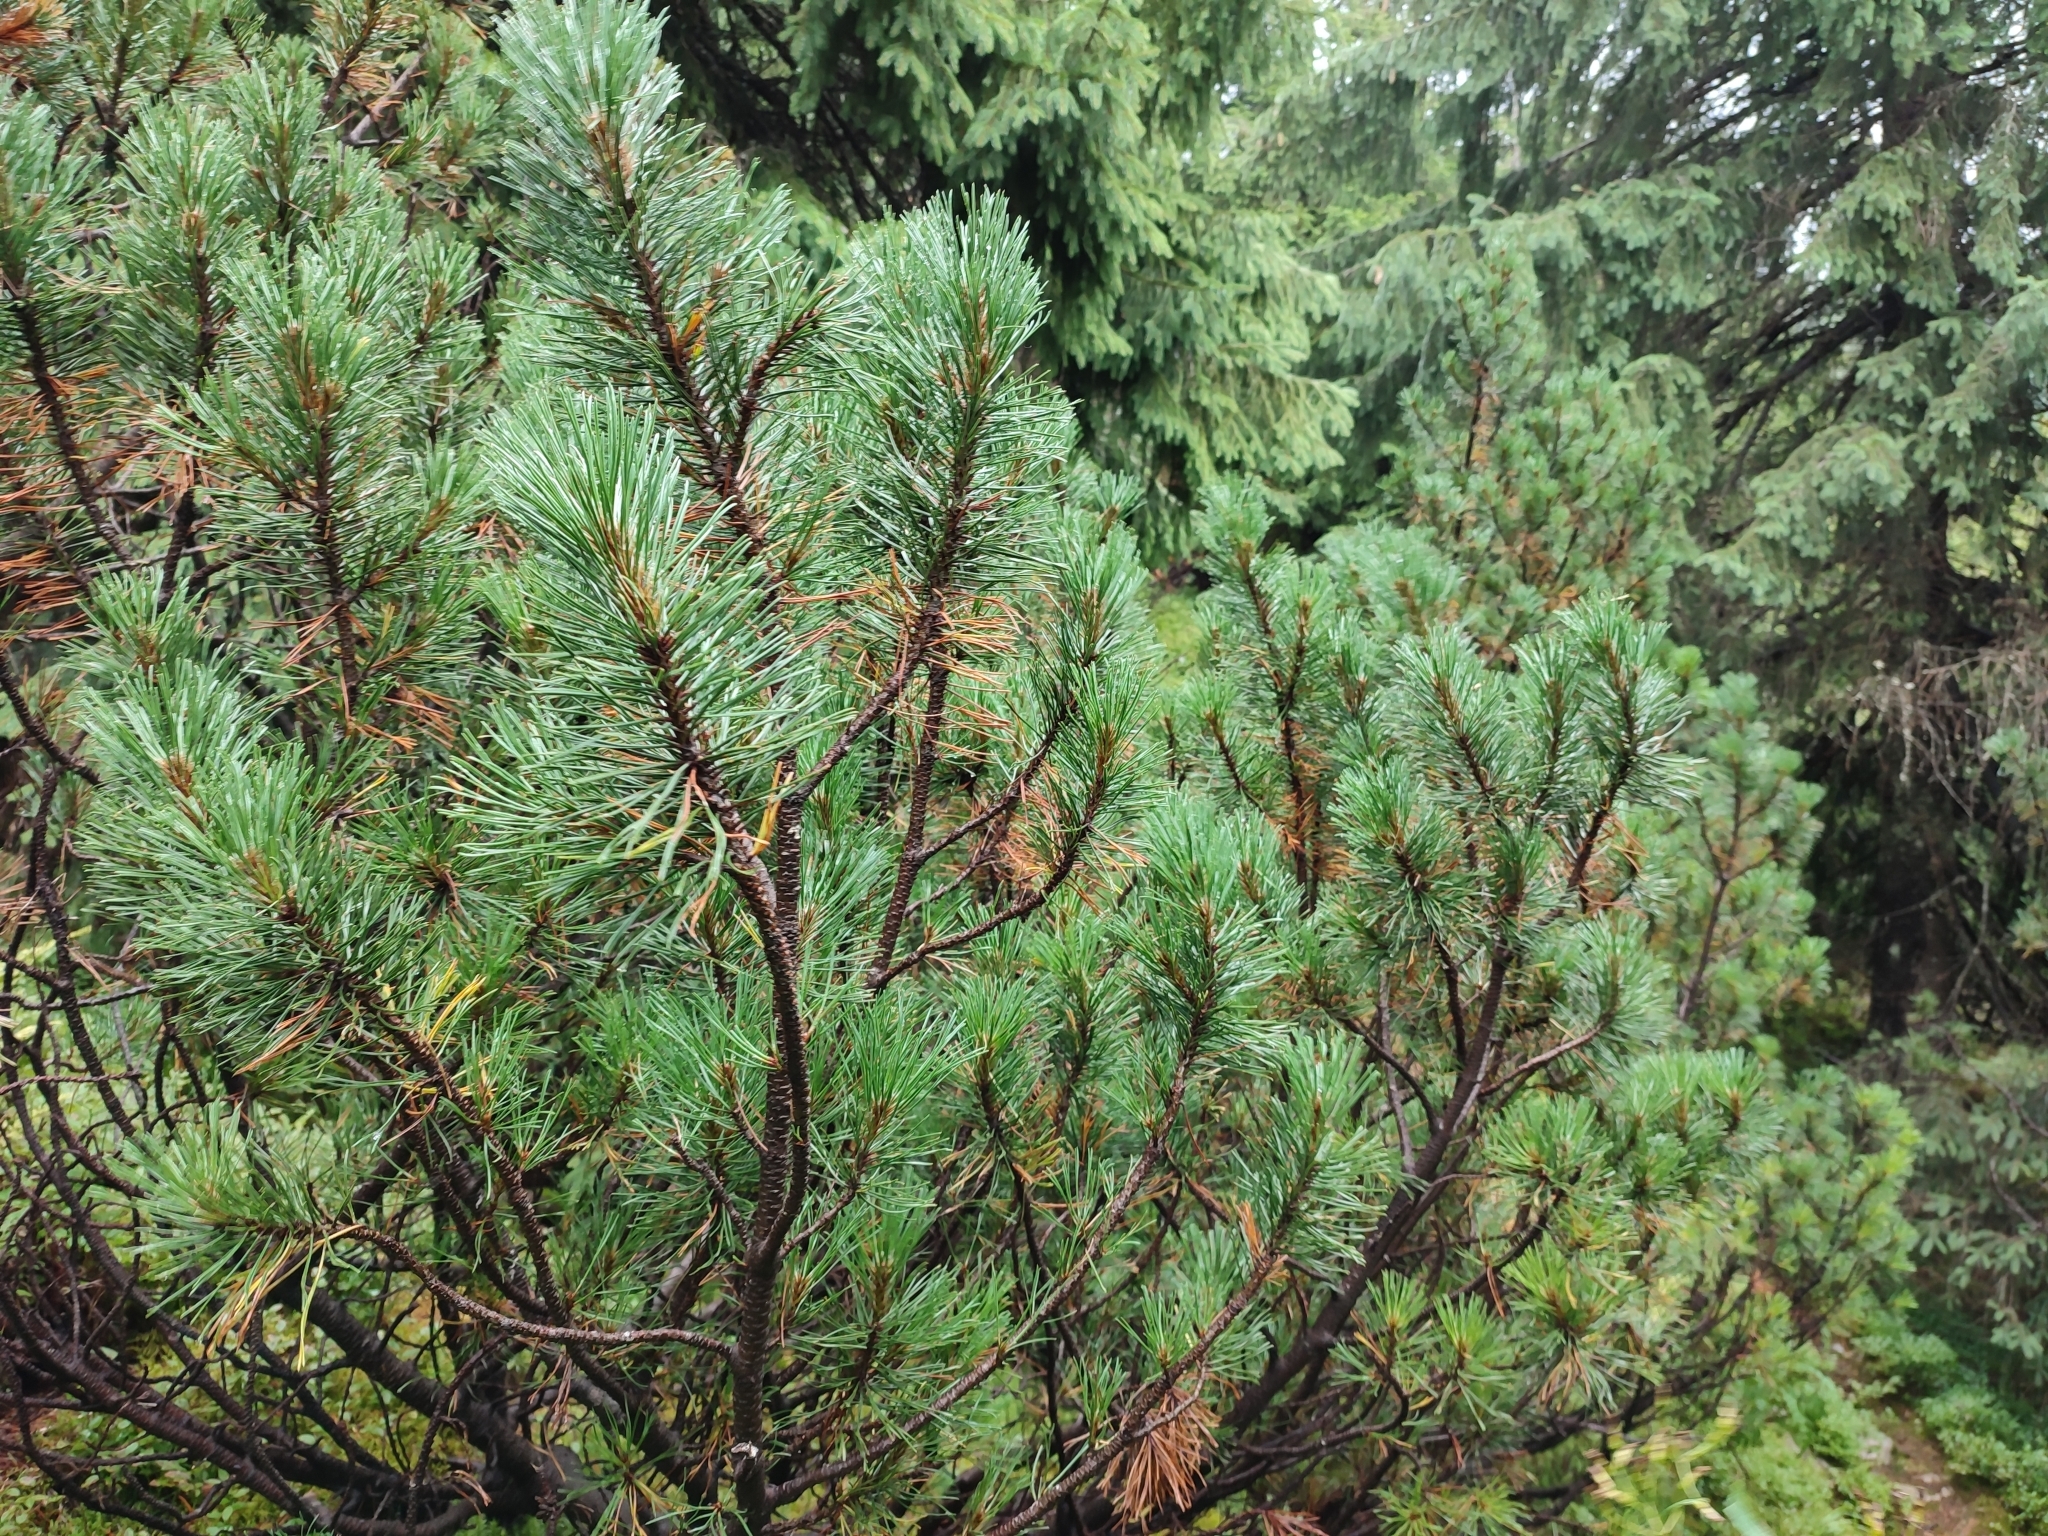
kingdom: Plantae
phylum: Tracheophyta
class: Pinopsida
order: Pinales
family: Pinaceae
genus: Pinus
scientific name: Pinus mugo
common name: Mugo pine
